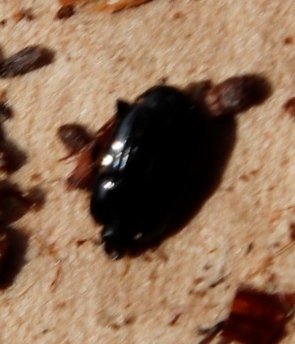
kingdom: Animalia
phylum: Arthropoda
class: Insecta
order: Coleoptera
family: Histeridae
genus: Afrosoma
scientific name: Afrosoma capense
